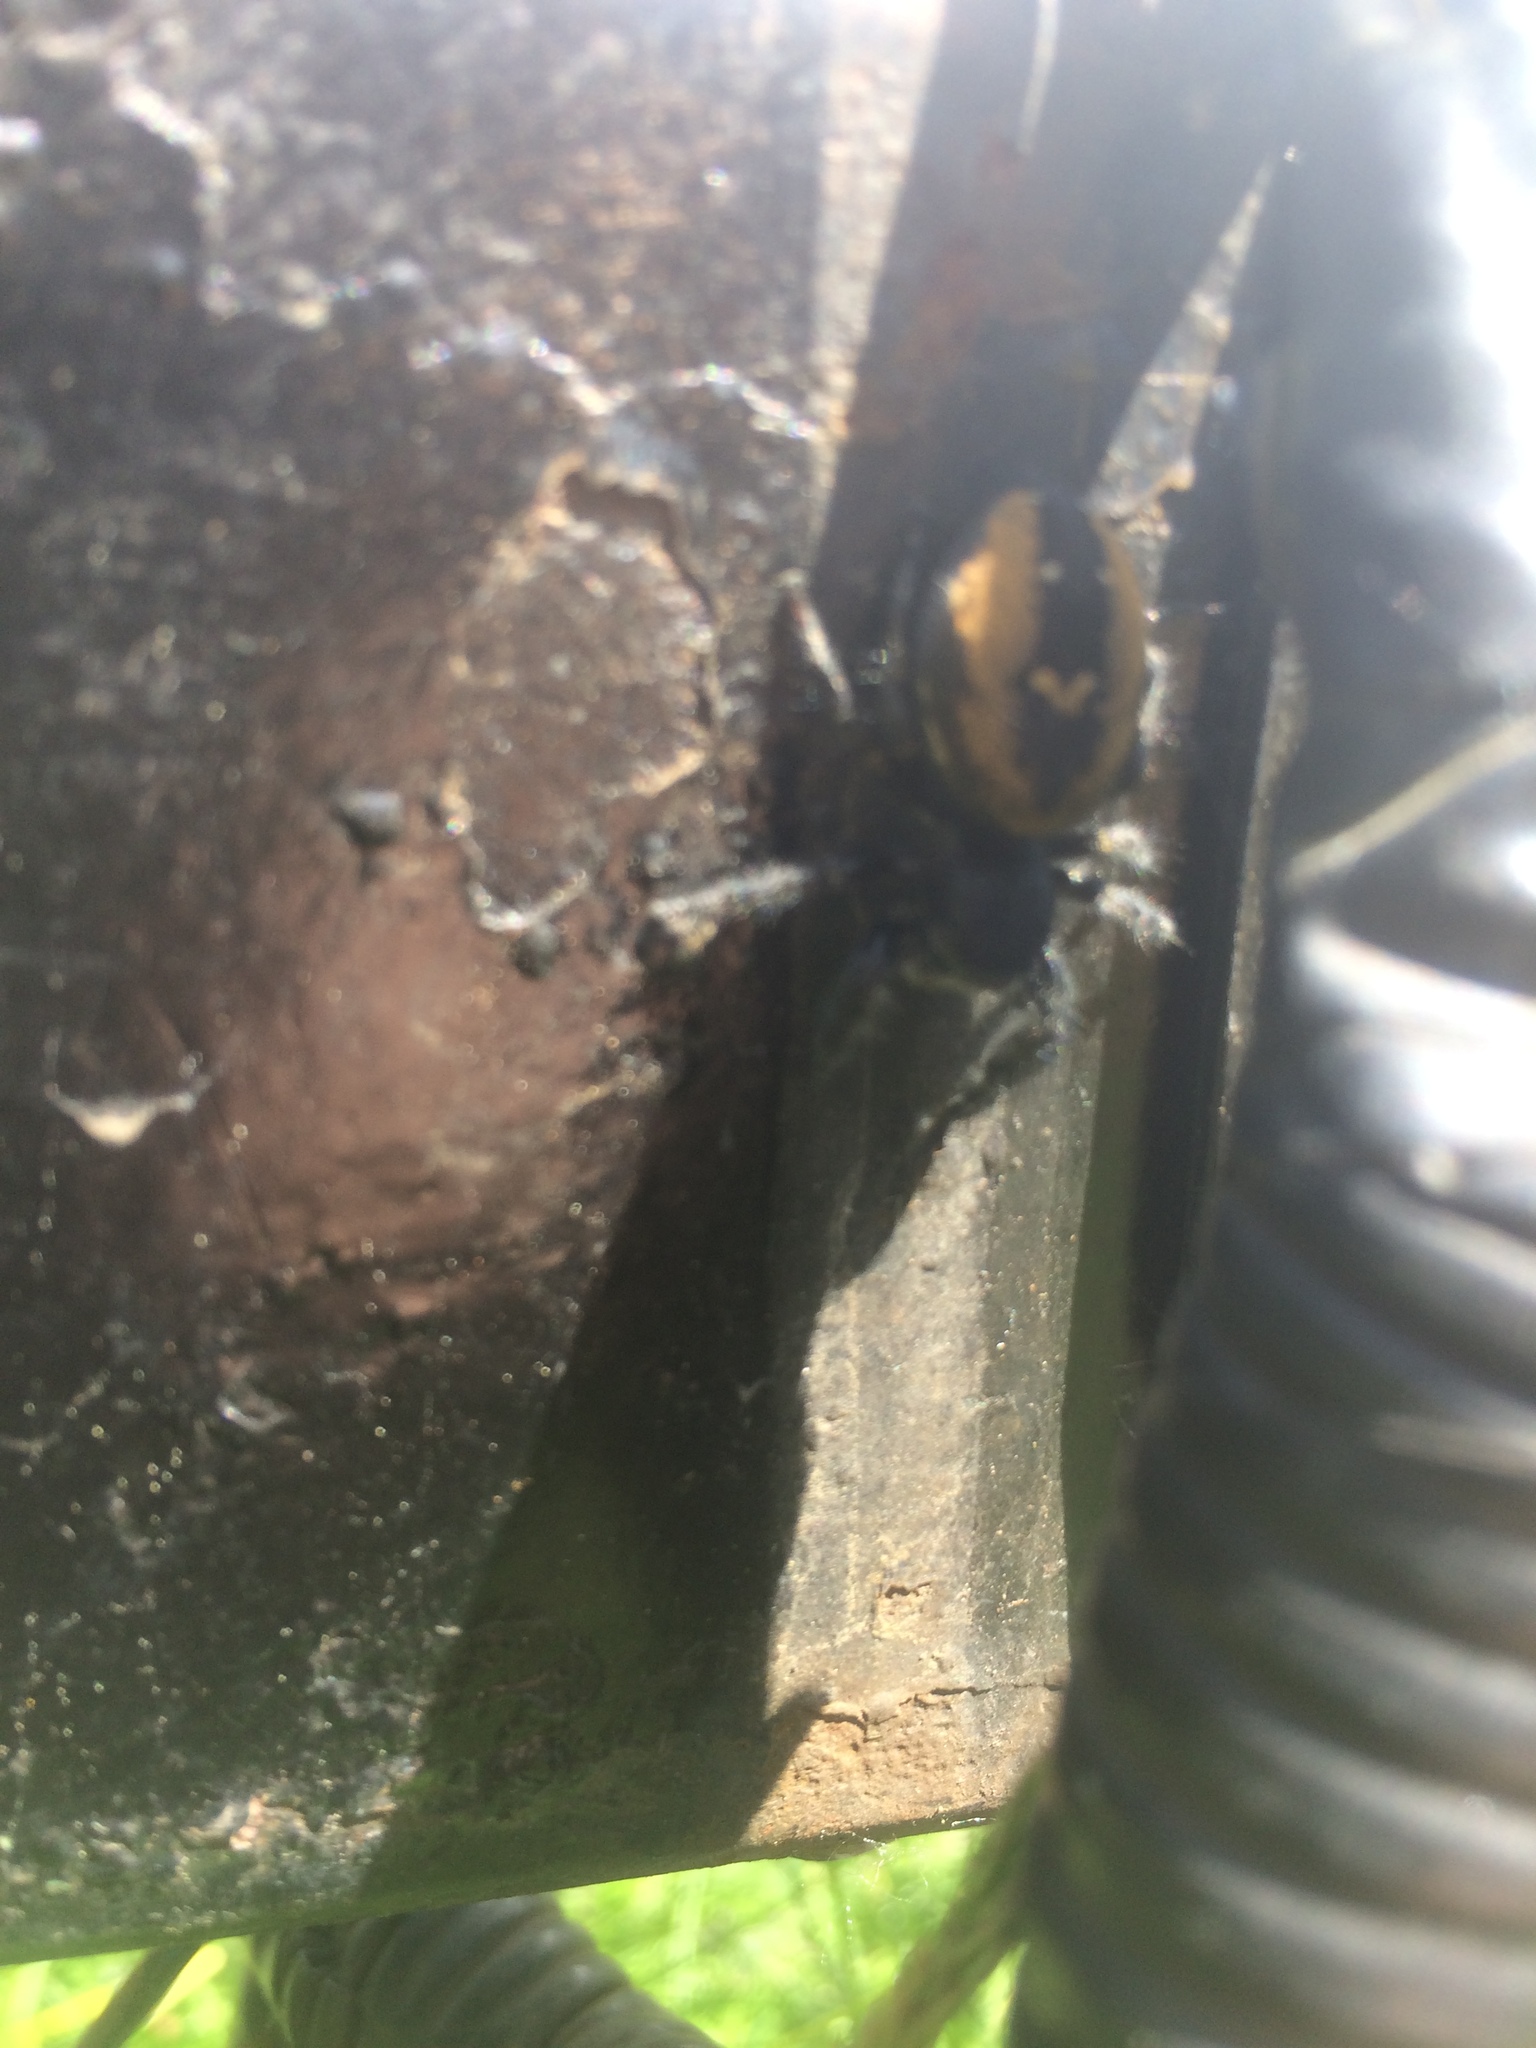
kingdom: Animalia
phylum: Arthropoda
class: Arachnida
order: Araneae
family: Salticidae
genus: Phidippus
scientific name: Phidippus johnsoni
